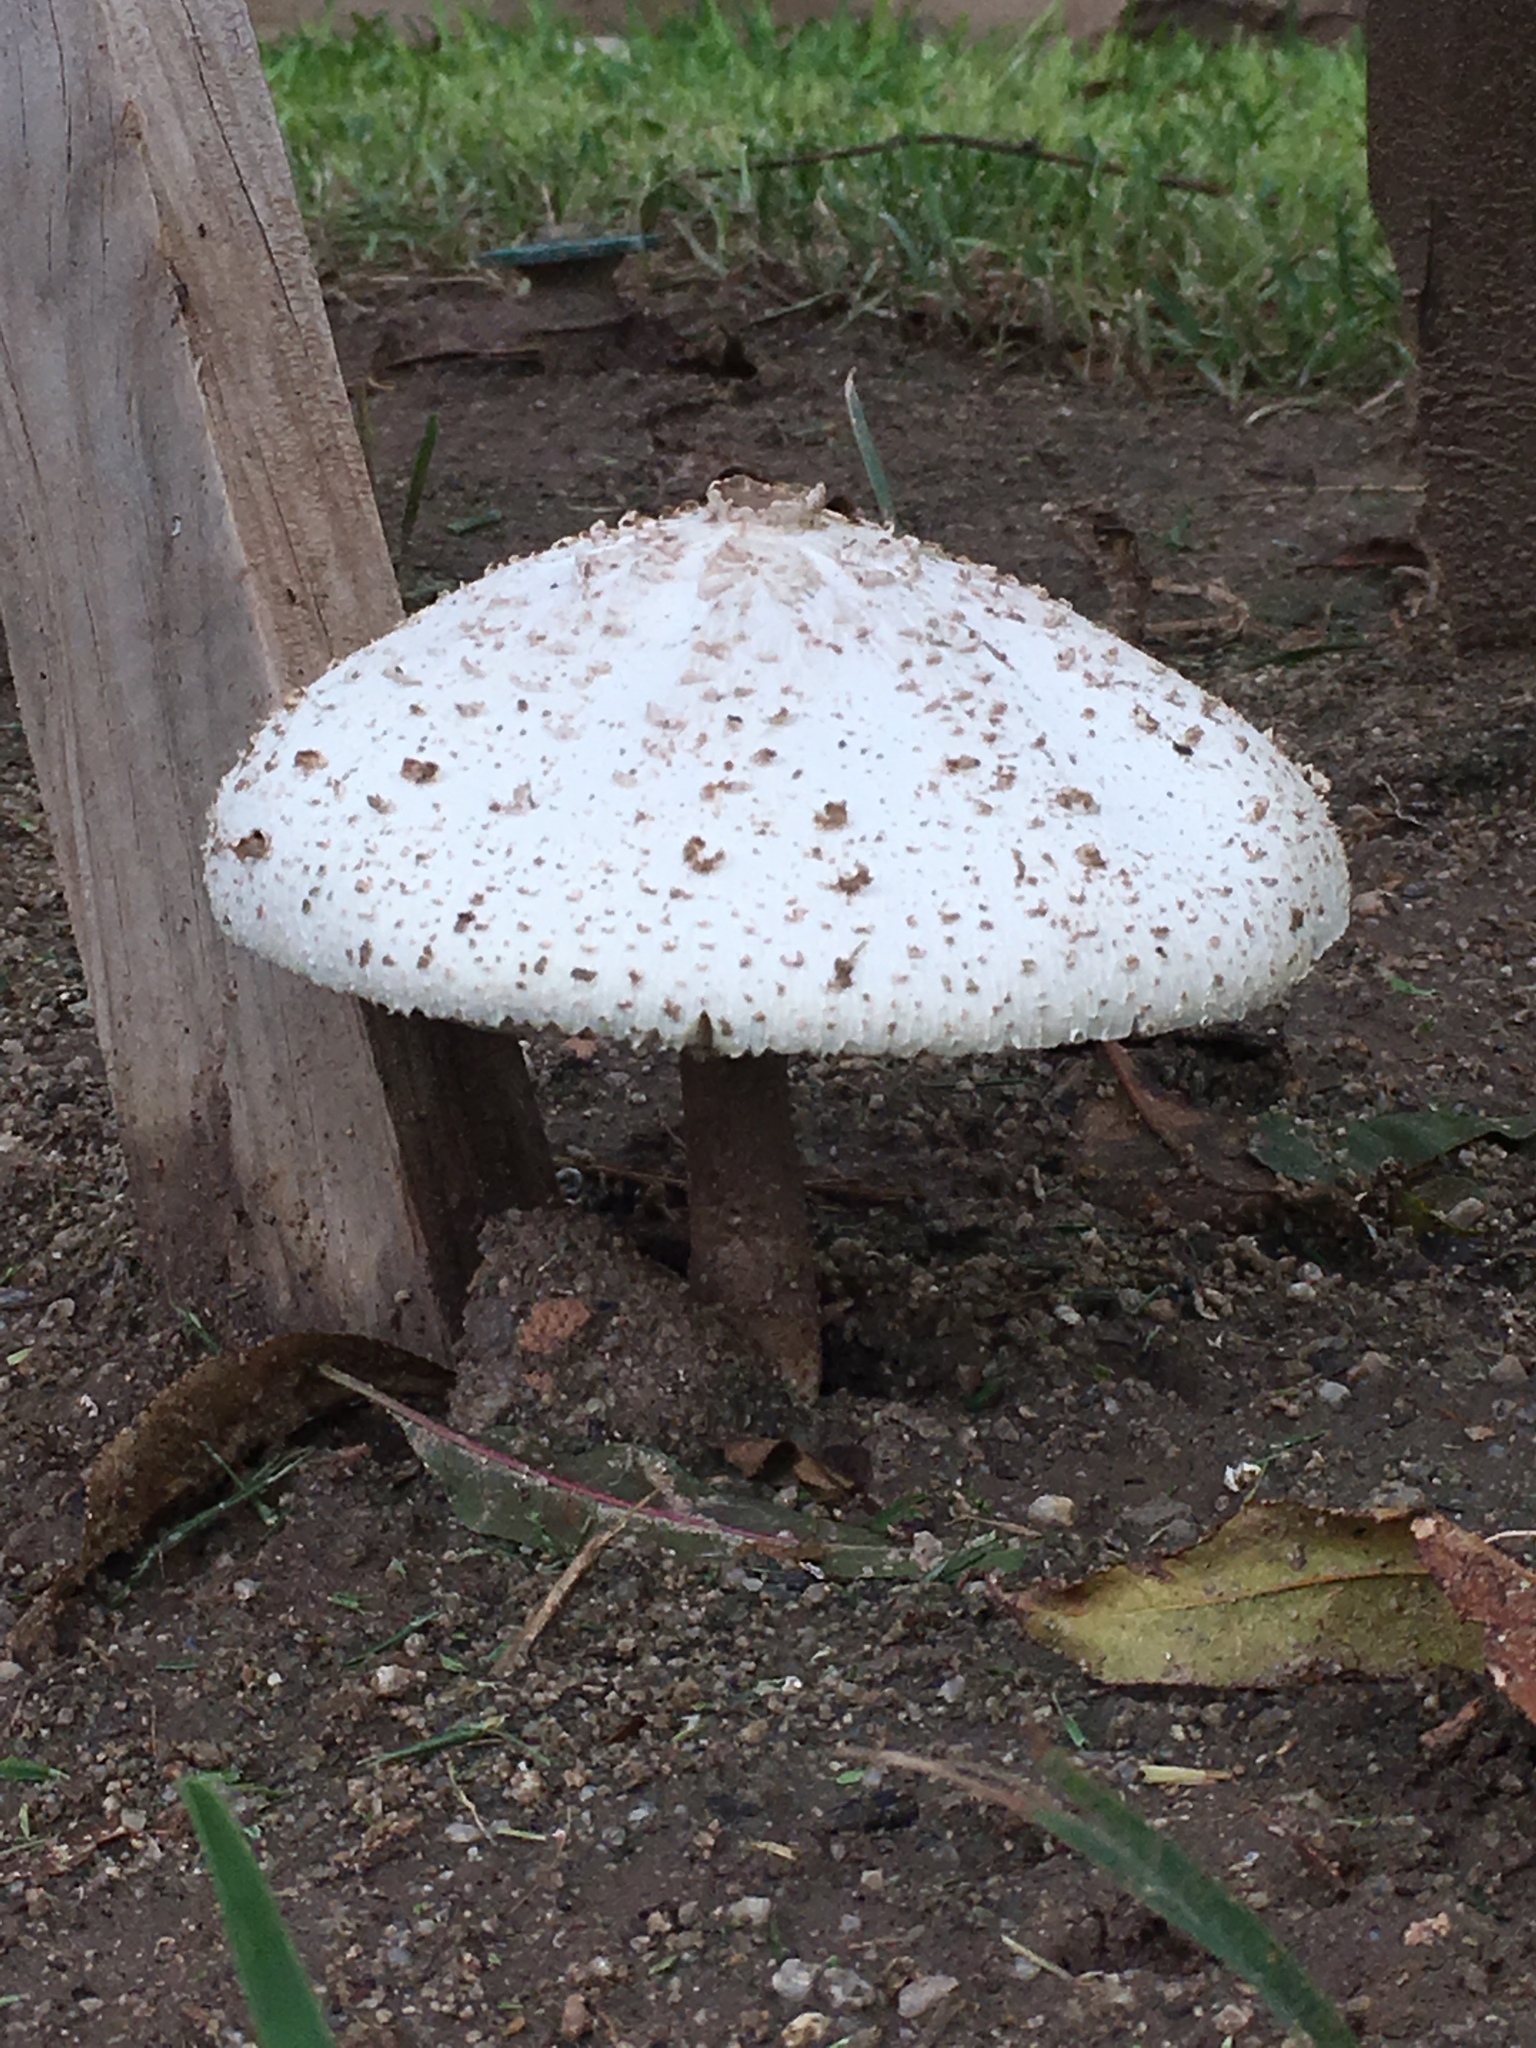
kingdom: Fungi
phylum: Basidiomycota
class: Agaricomycetes
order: Agaricales
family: Agaricaceae
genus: Chlorophyllum
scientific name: Chlorophyllum molybdites
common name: False parasol
